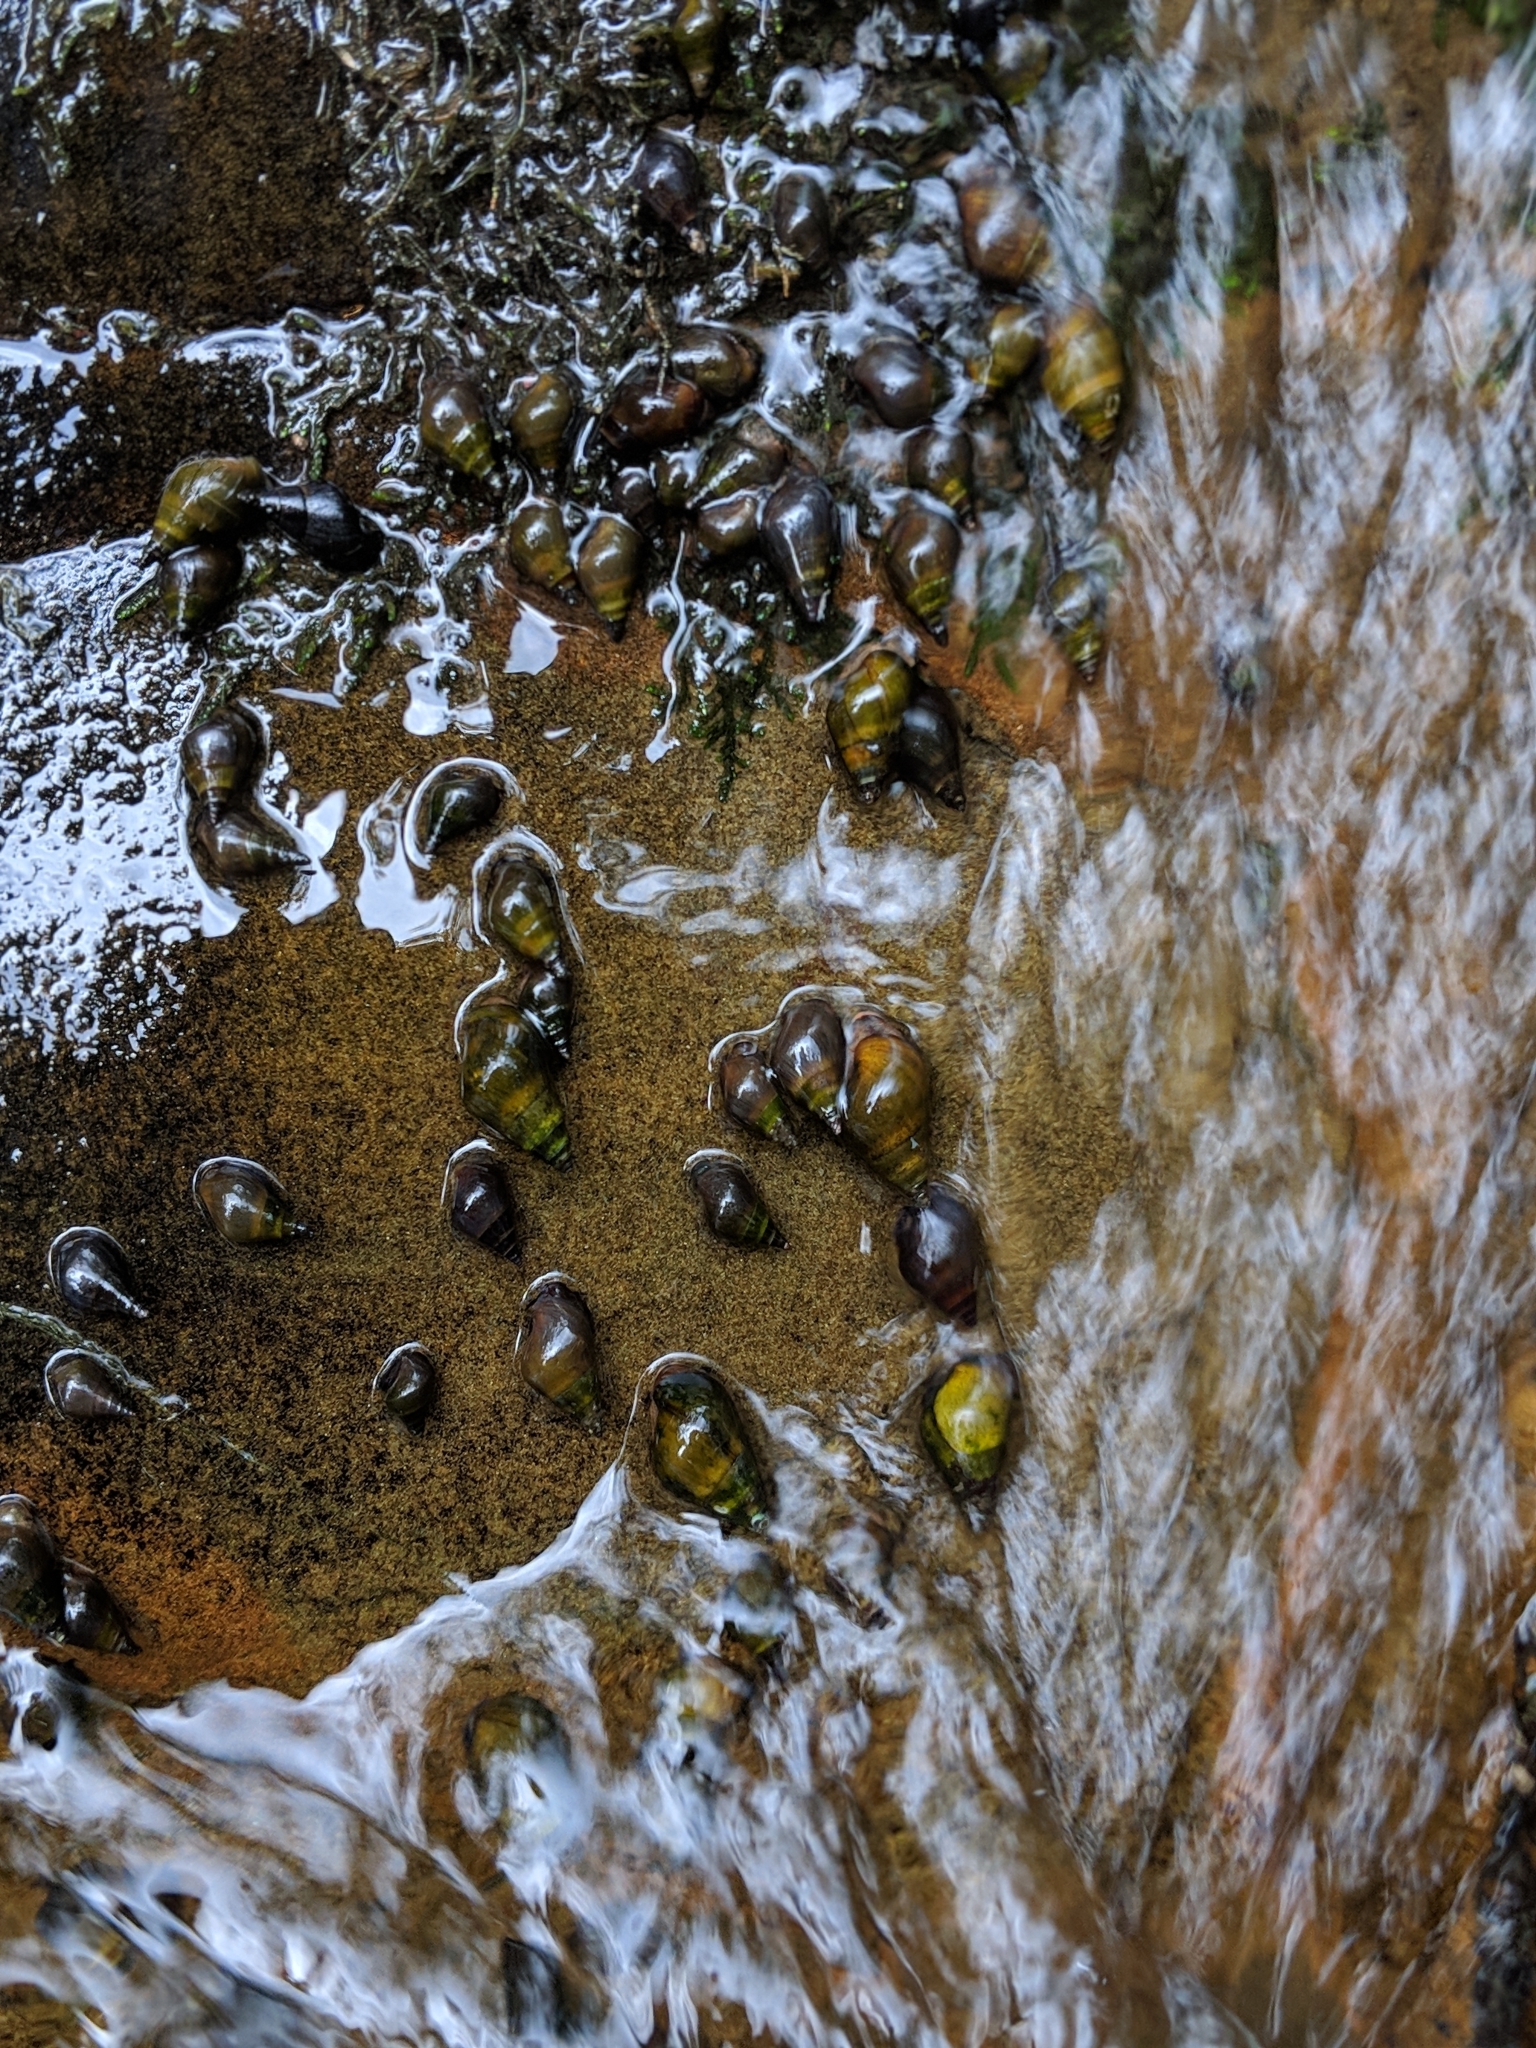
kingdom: Animalia
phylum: Mollusca
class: Gastropoda
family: Pleuroceridae
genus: Elimia
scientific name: Elimia melanoides
